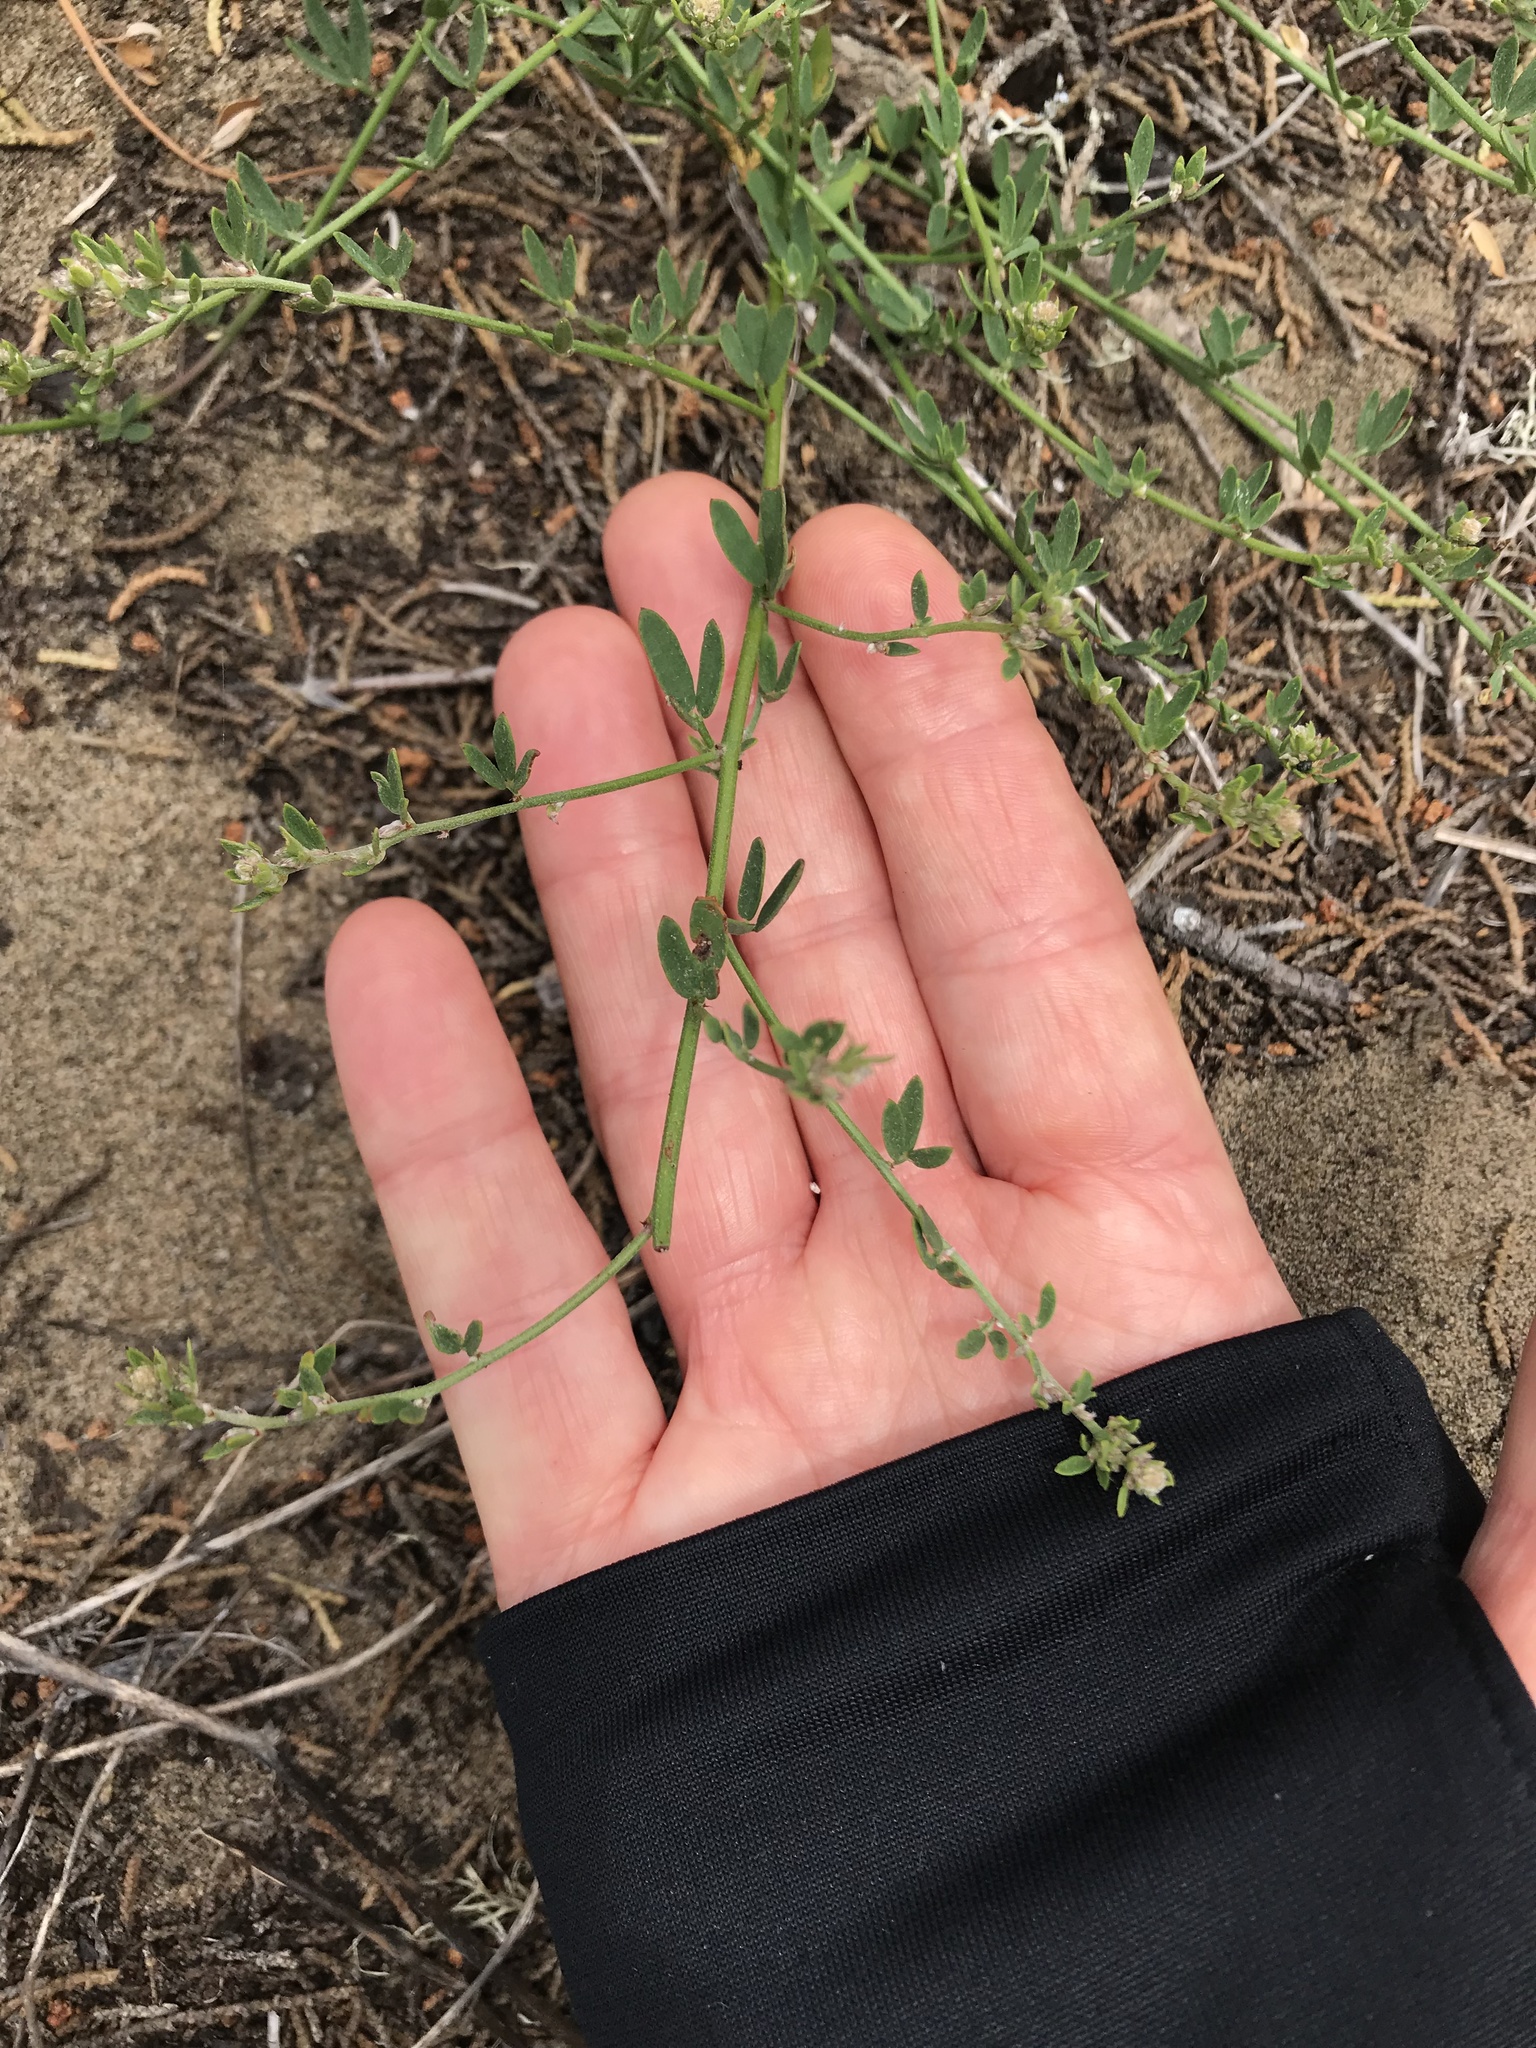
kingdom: Plantae
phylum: Tracheophyta
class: Magnoliopsida
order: Fabales
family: Fabaceae
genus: Acmispon
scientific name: Acmispon glaber
